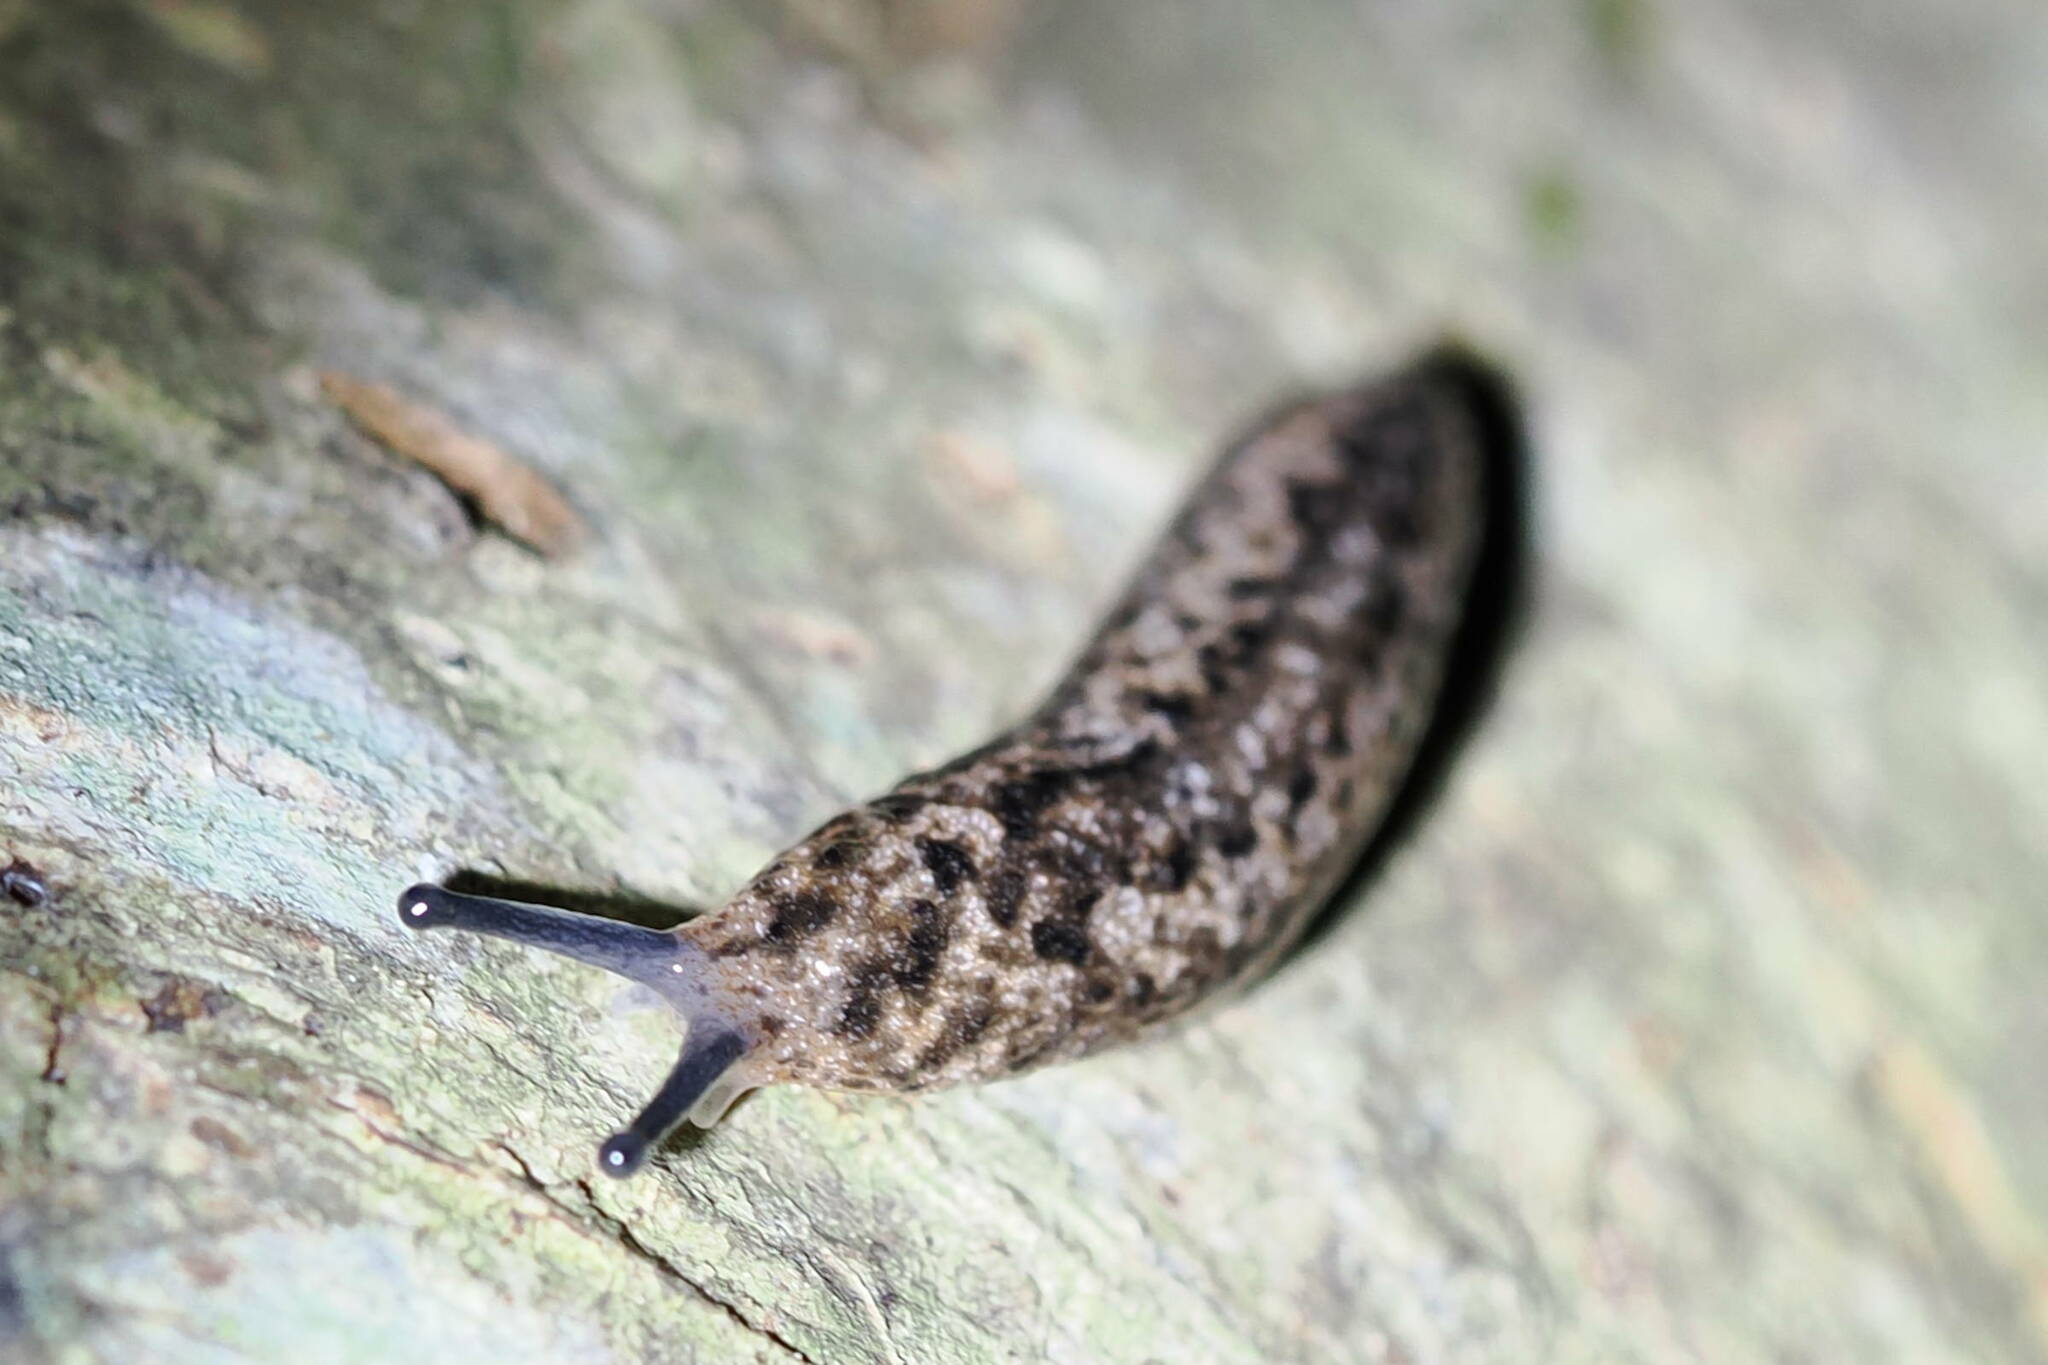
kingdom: Animalia
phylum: Mollusca
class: Gastropoda
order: Stylommatophora
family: Philomycidae
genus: Philomycus
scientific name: Philomycus carolinianus
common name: Carolina mantleslug
